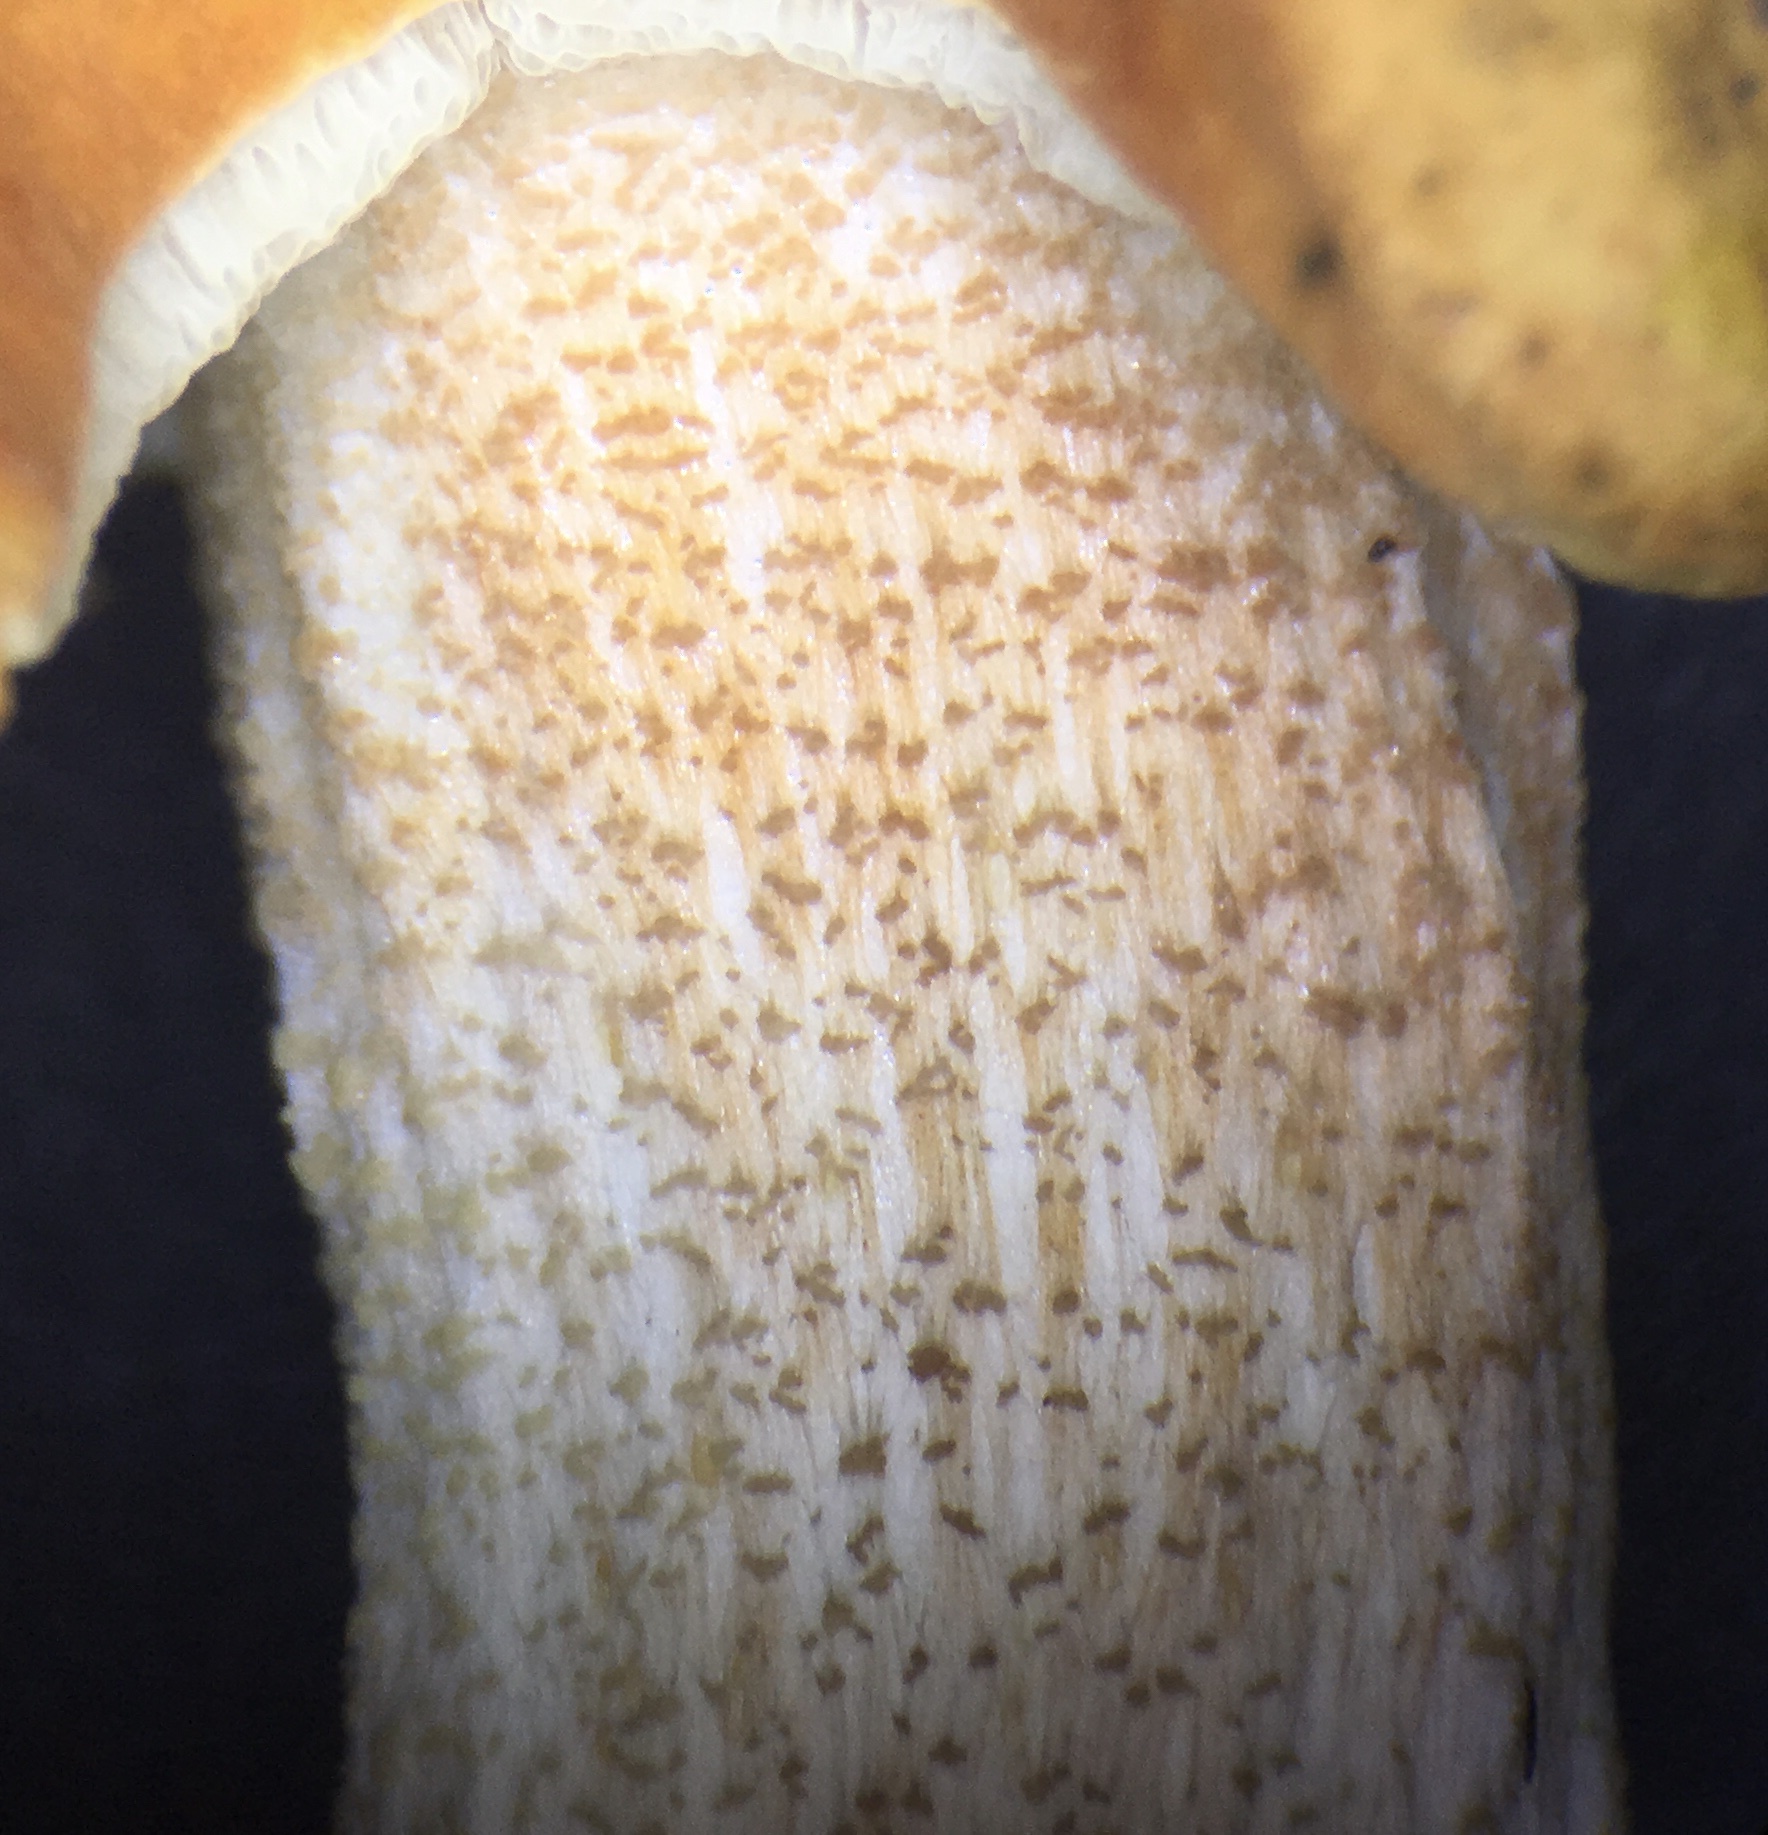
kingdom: Fungi
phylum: Basidiomycota
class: Agaricomycetes
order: Boletales
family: Boletaceae
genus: Leccinum
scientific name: Leccinum longicurvipes
